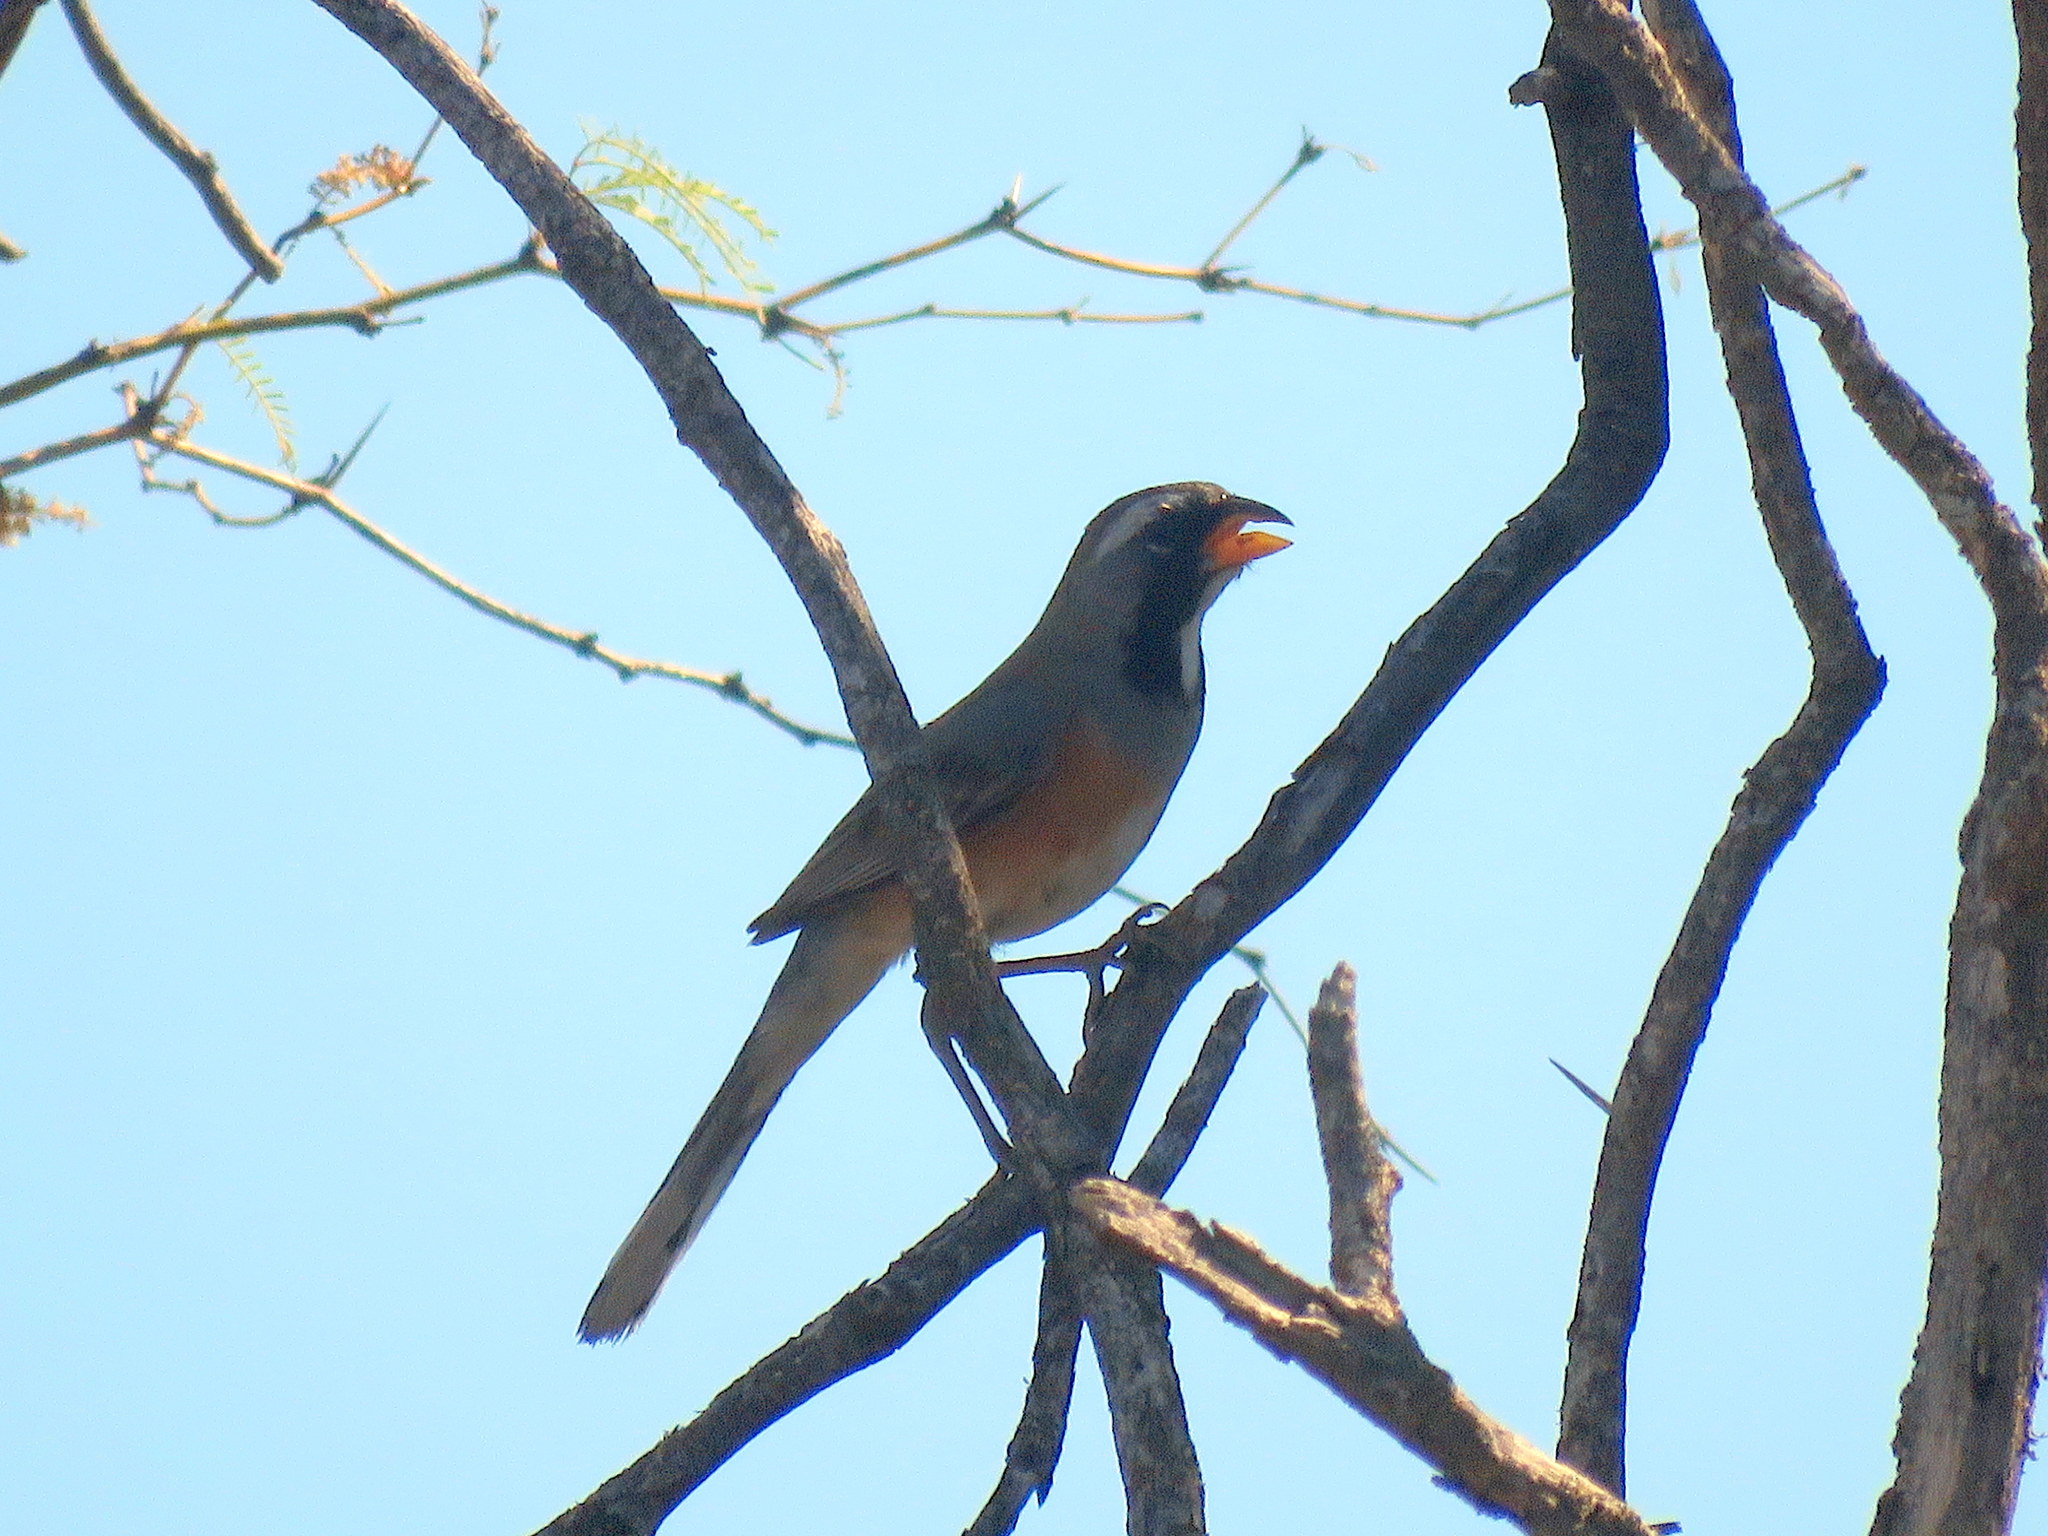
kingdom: Animalia
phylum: Chordata
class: Aves
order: Passeriformes
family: Thraupidae
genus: Saltatricula
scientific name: Saltatricula multicolor
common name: Many-colored chaco finch
